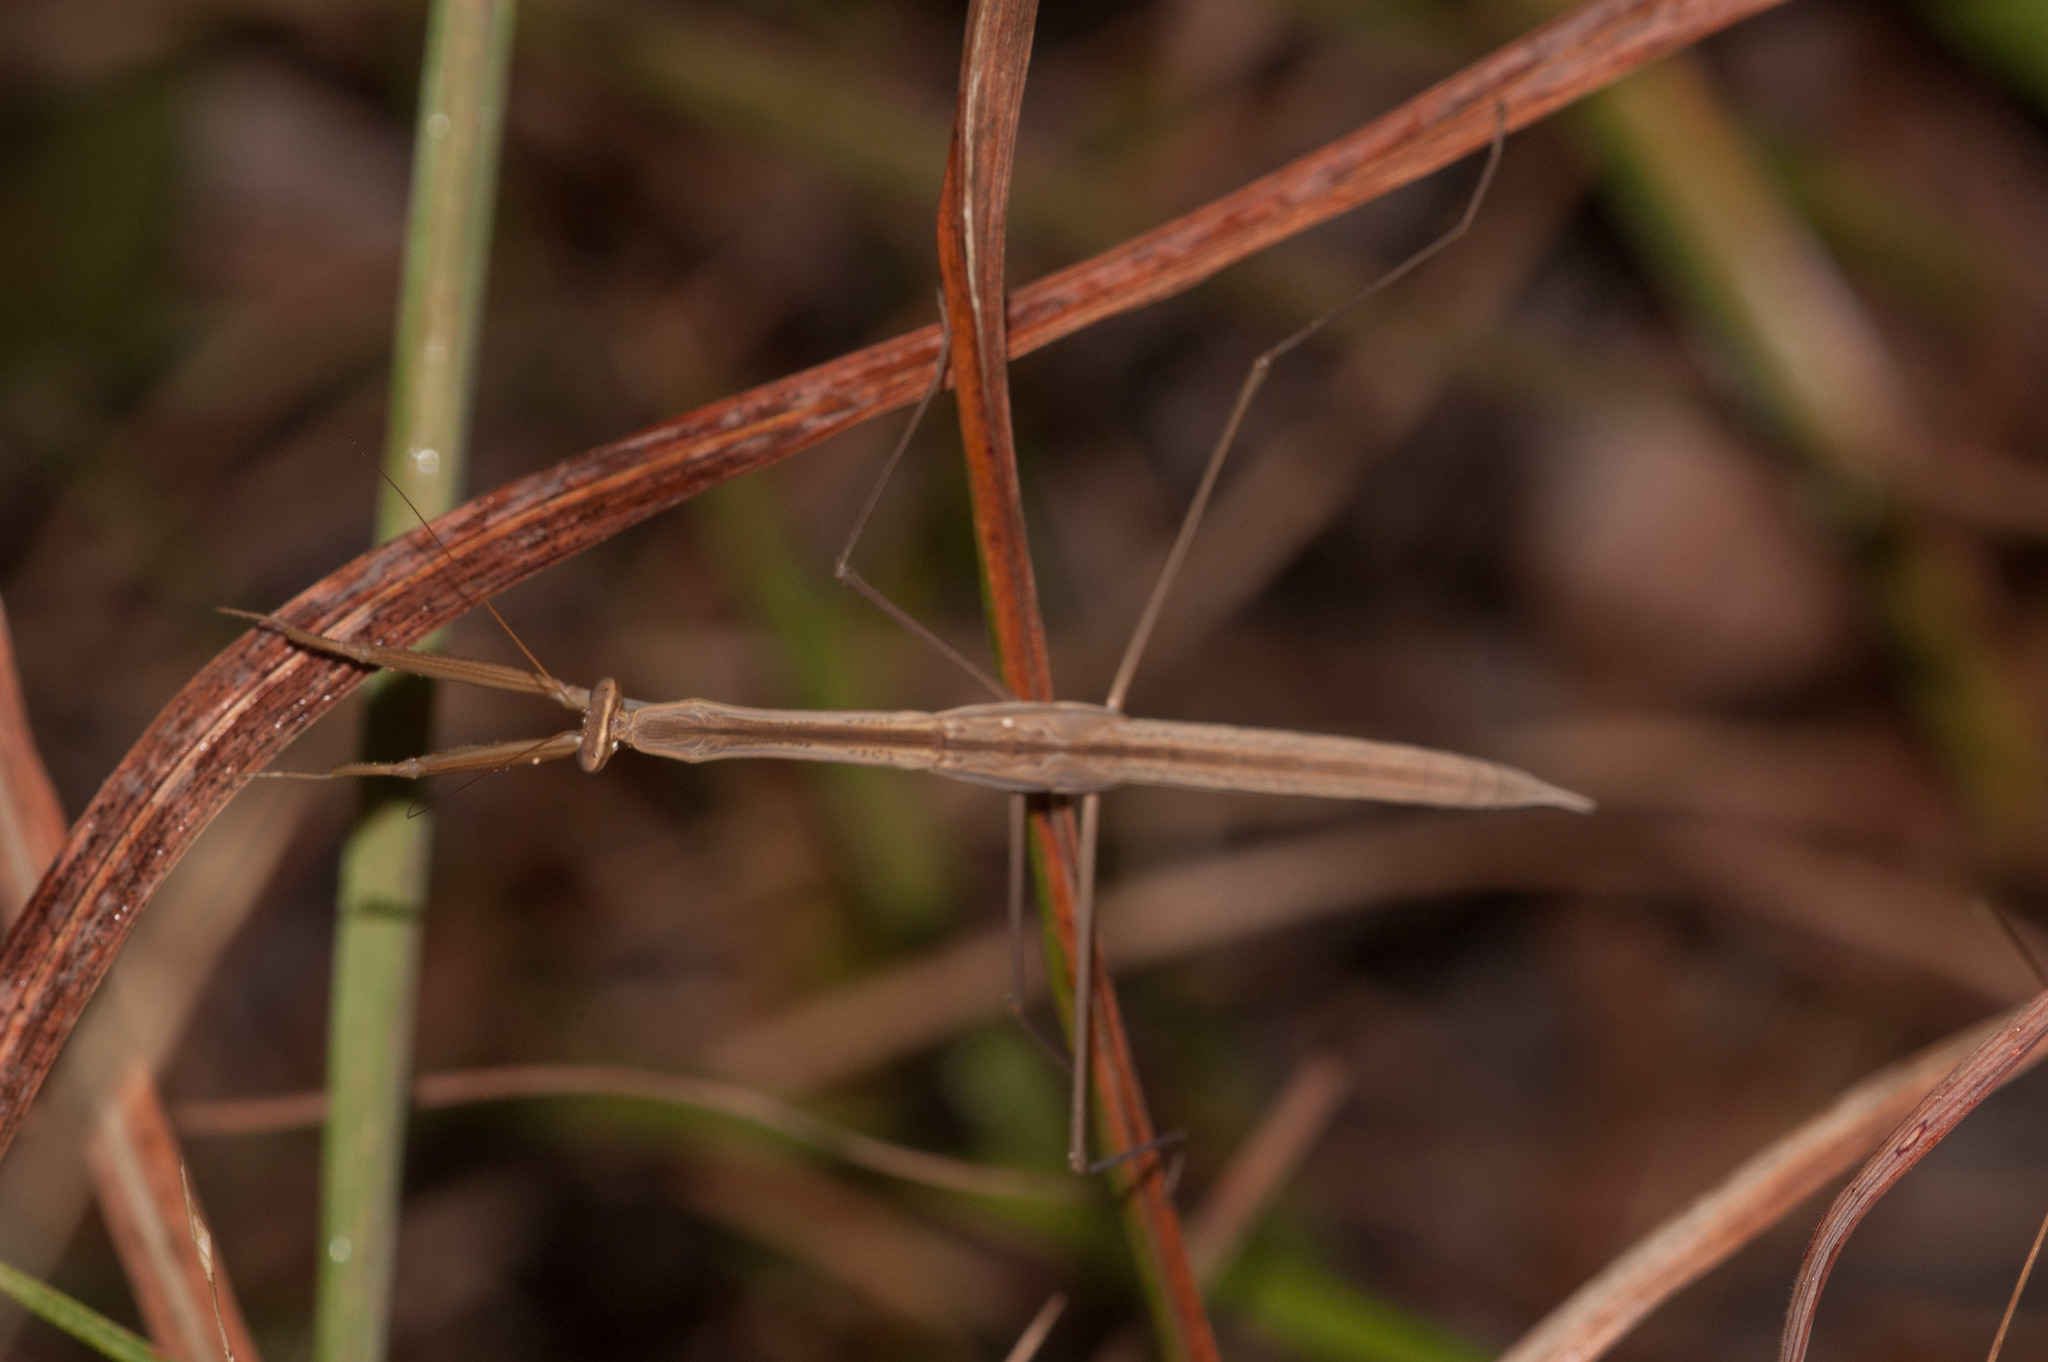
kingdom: Animalia
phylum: Arthropoda
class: Insecta
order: Mantodea
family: Mantidae
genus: Tenodera
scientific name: Tenodera australasiae
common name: Purple-winged mantis
